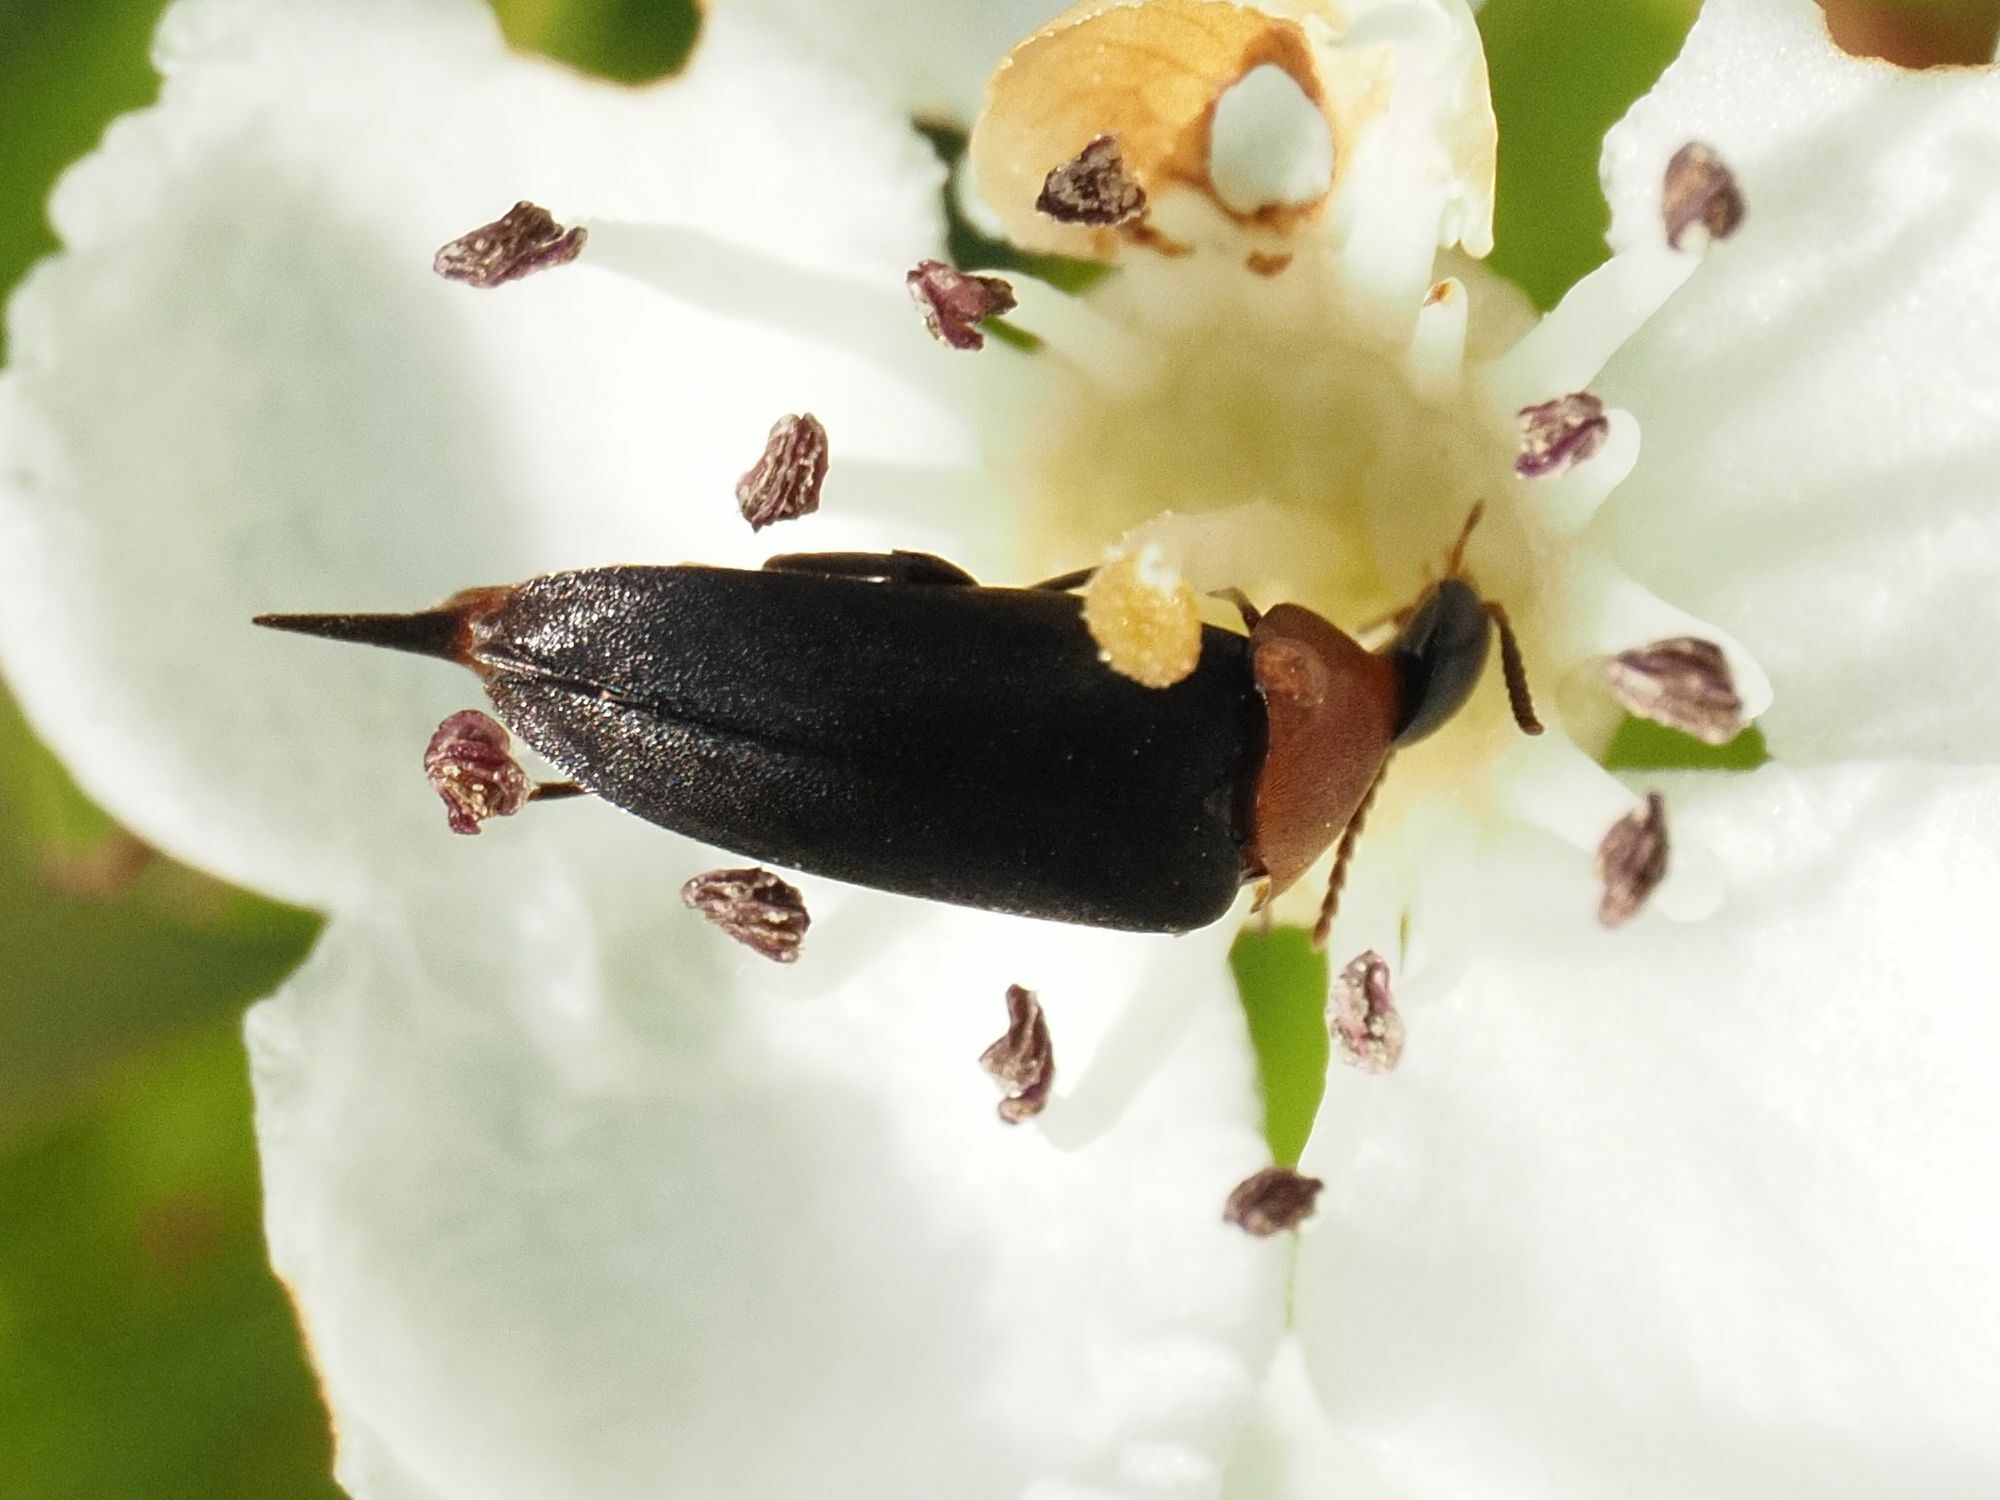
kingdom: Animalia
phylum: Arthropoda
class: Insecta
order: Coleoptera
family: Mordellidae
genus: Mordellochroa
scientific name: Mordellochroa abdominalis
